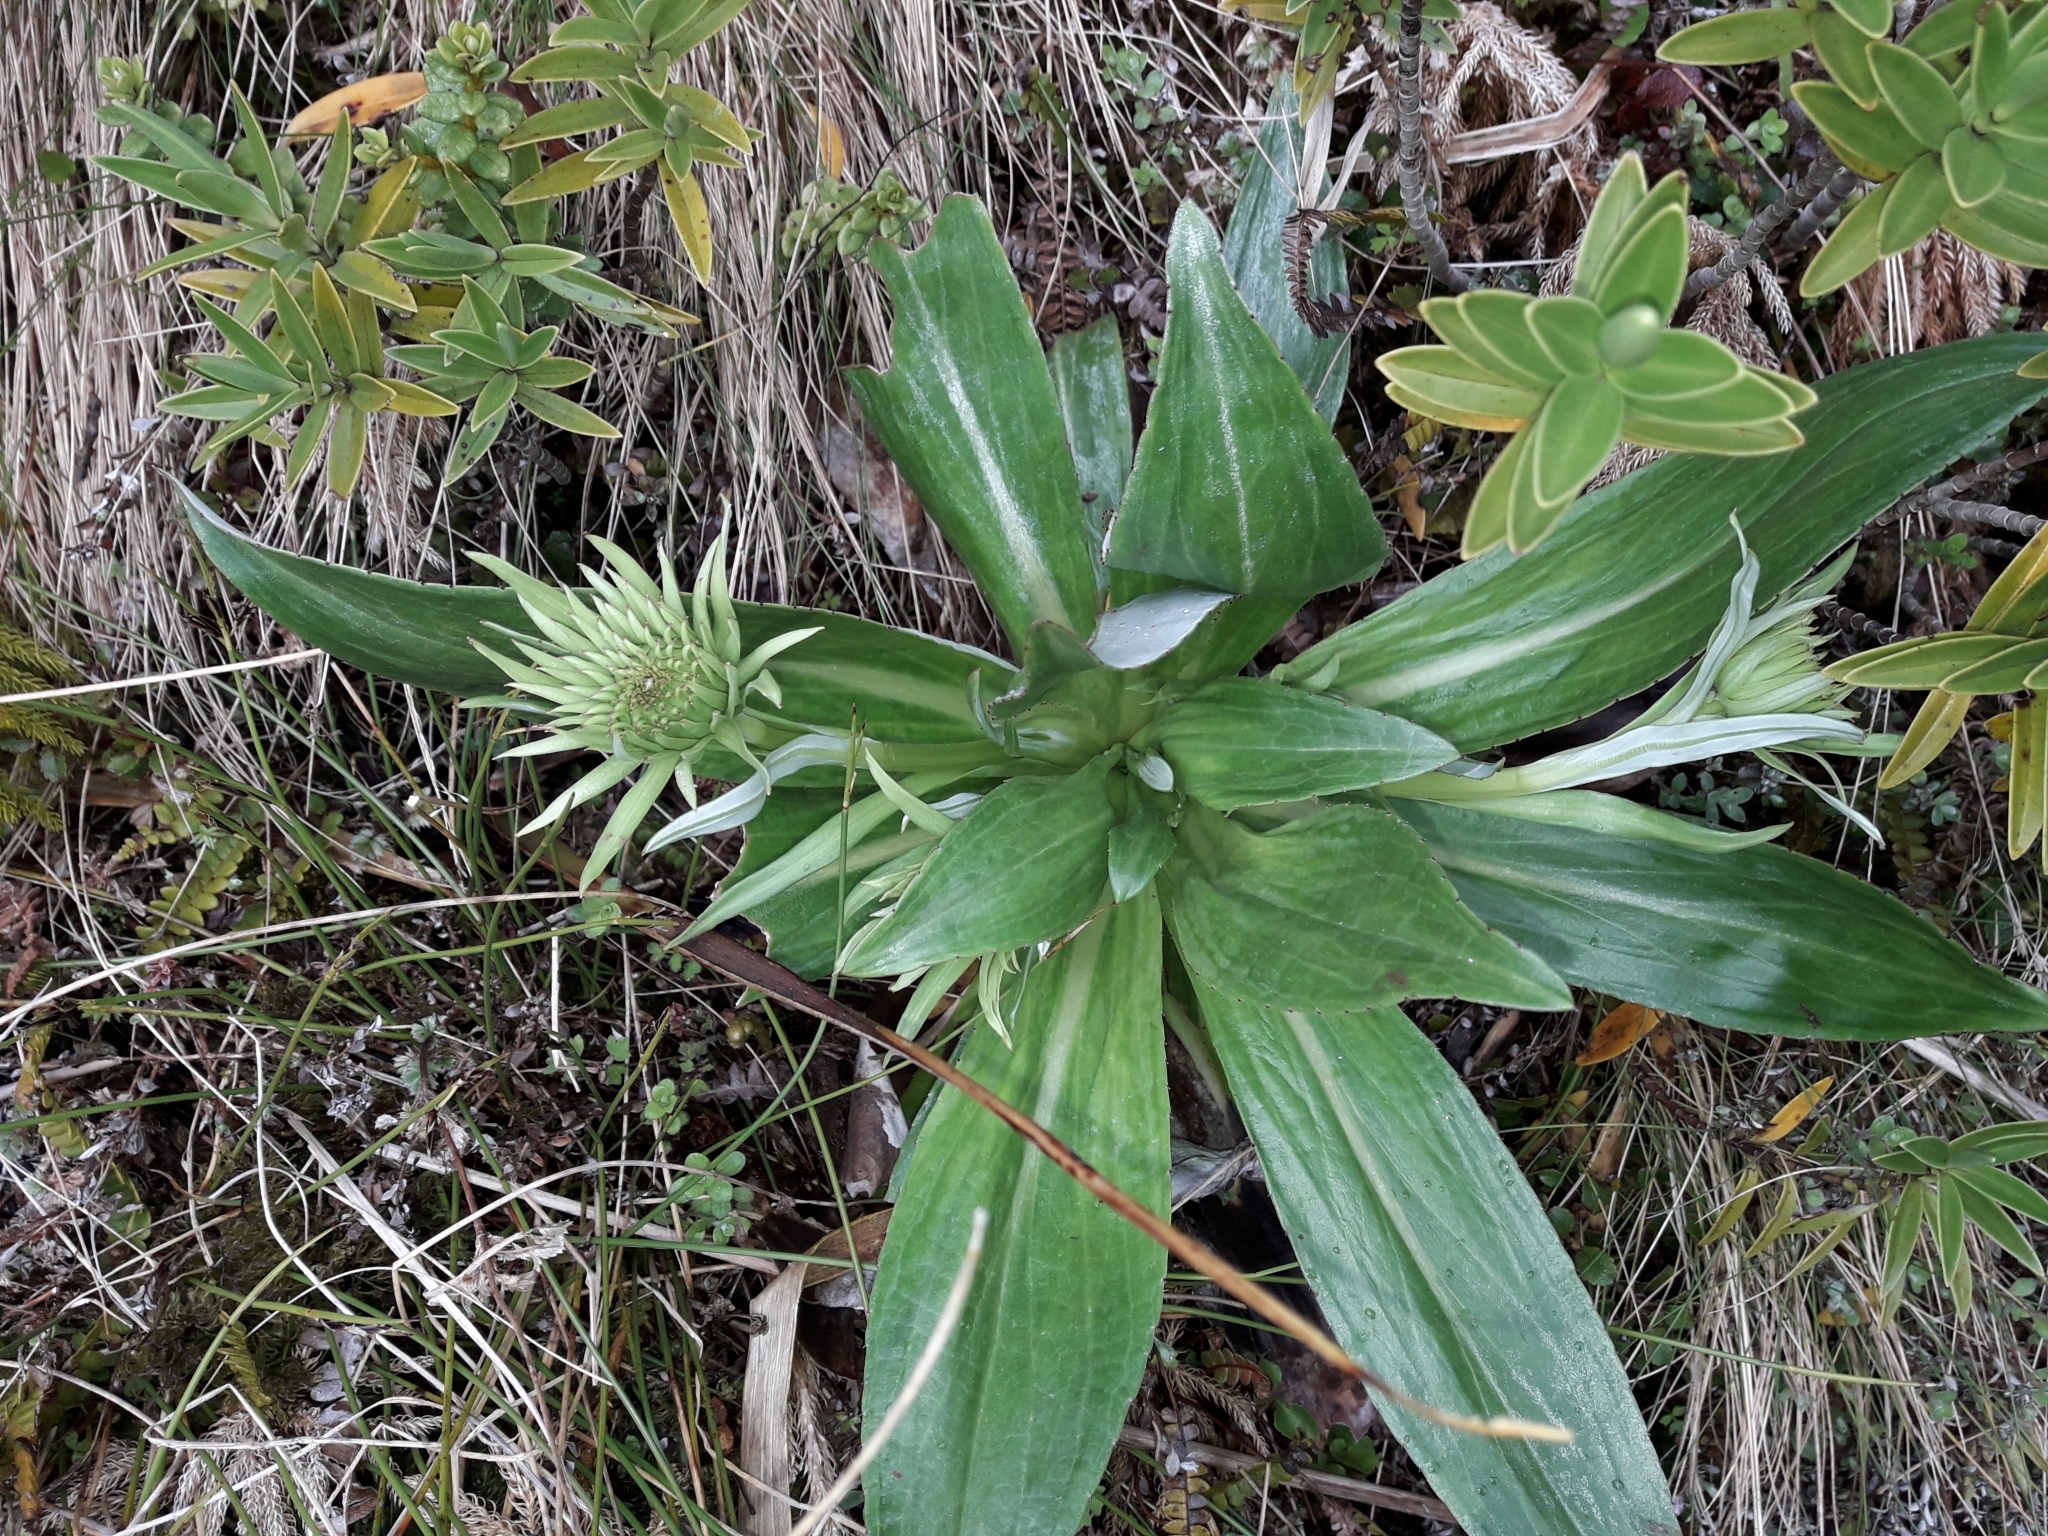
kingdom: Plantae
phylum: Tracheophyta
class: Magnoliopsida
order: Asterales
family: Asteraceae
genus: Celmisia
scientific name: Celmisia holosericea
